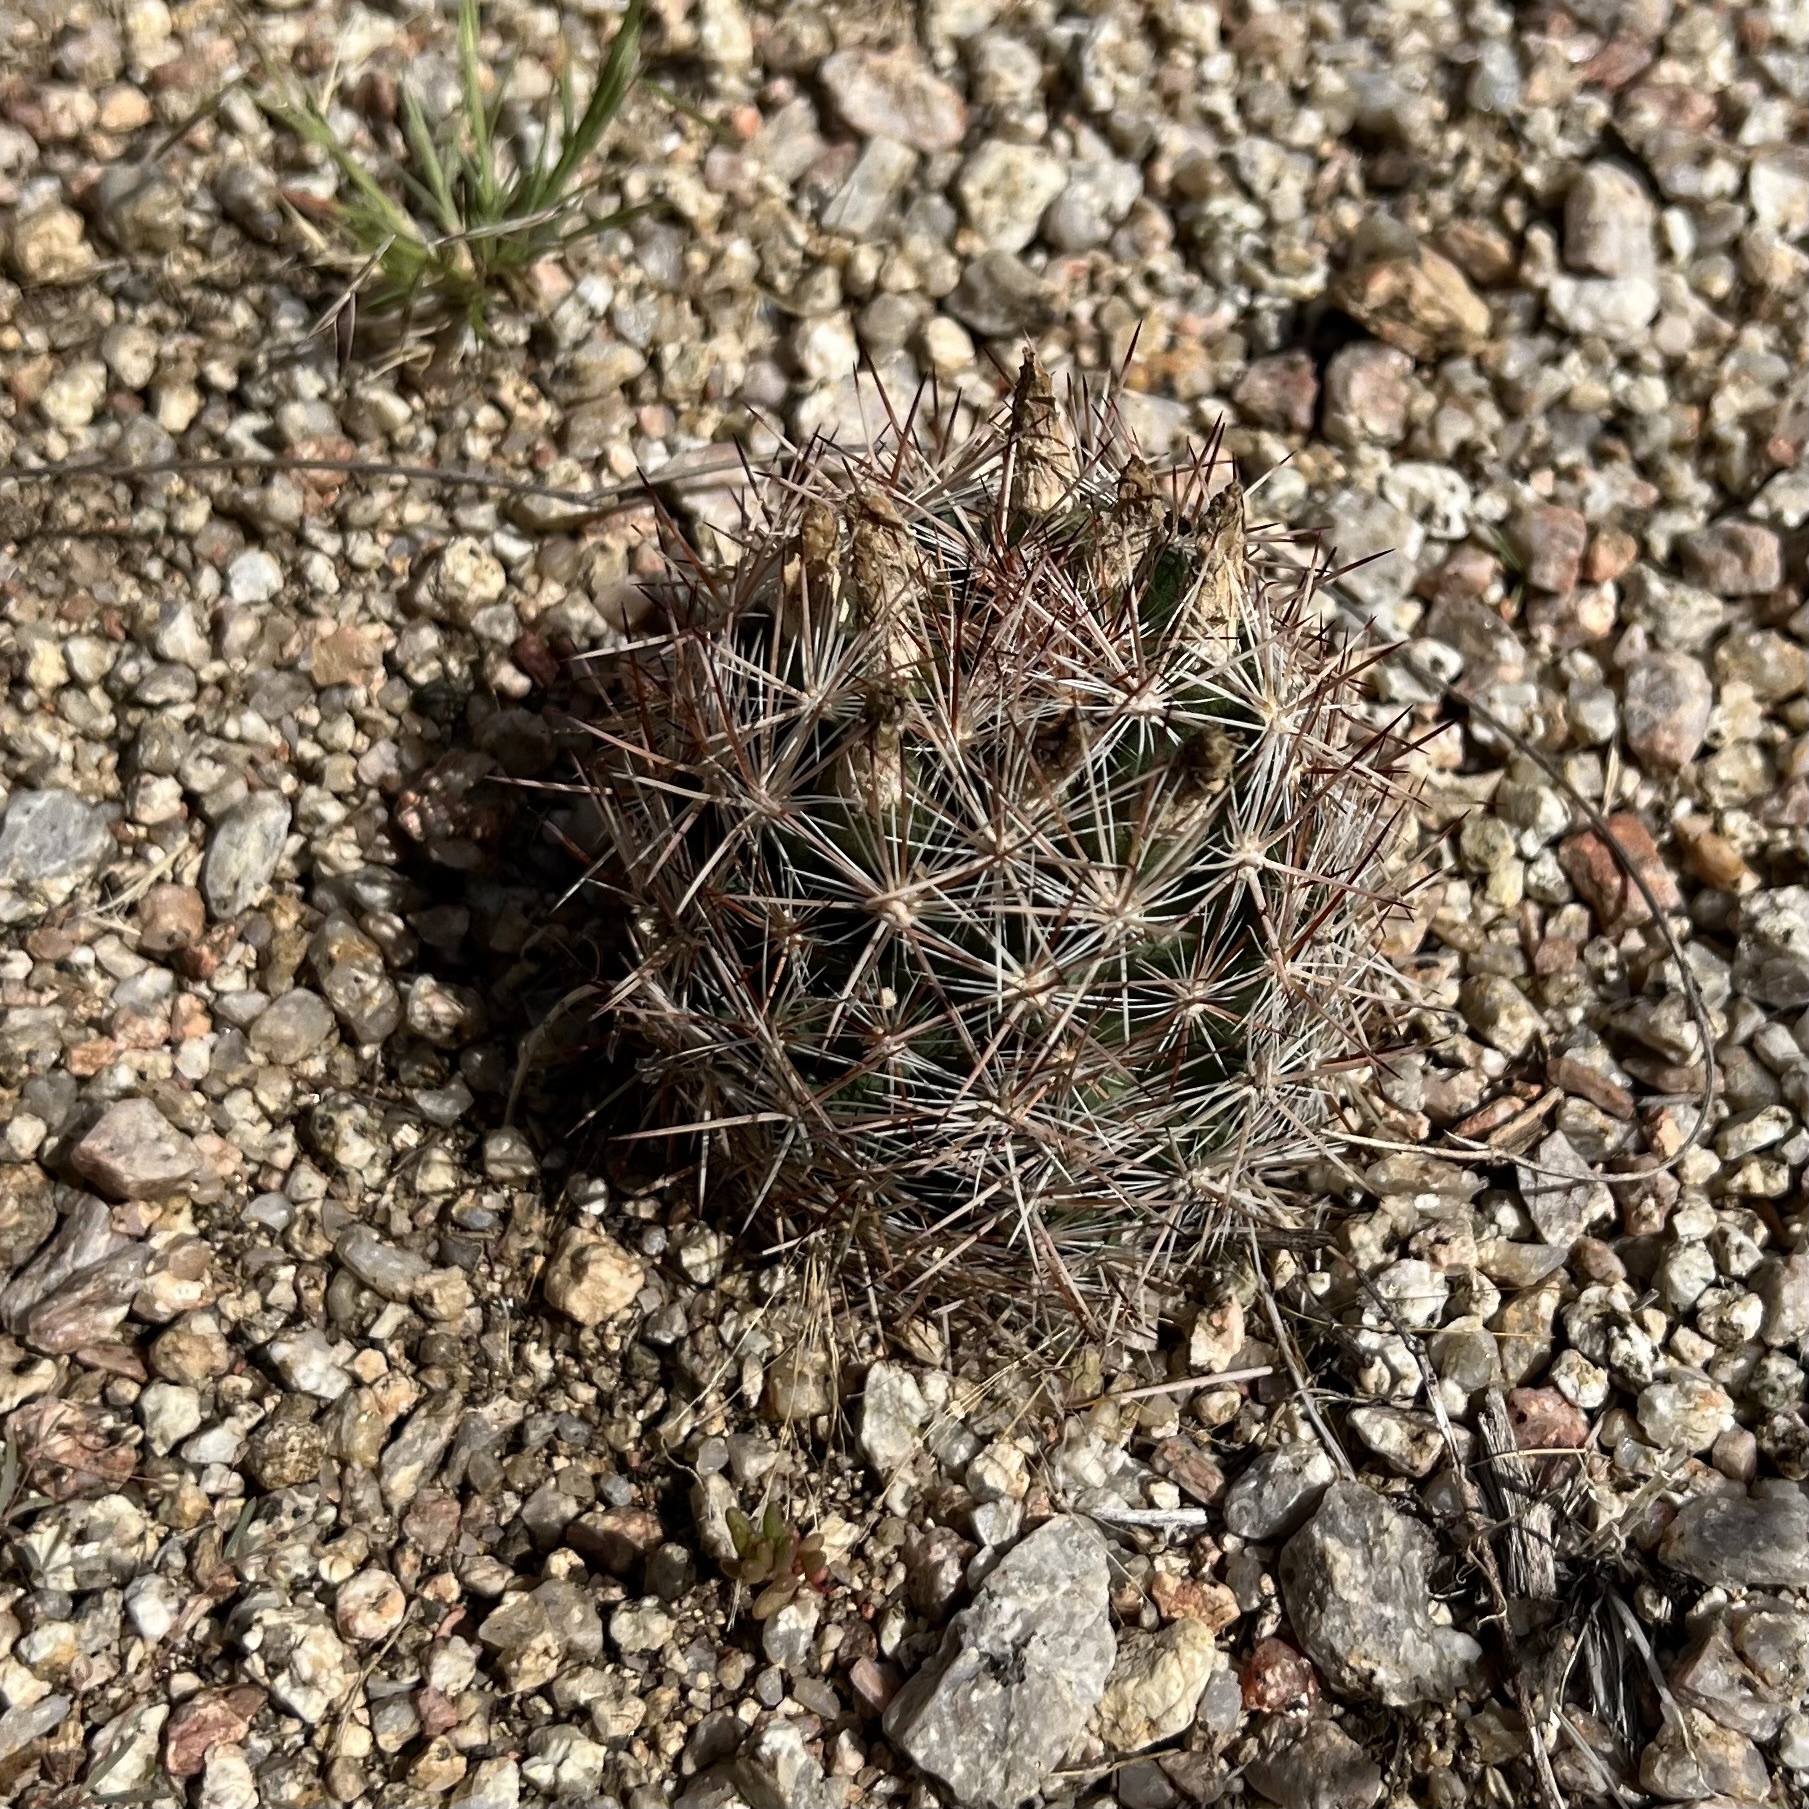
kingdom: Plantae
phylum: Tracheophyta
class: Magnoliopsida
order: Caryophyllales
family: Cactaceae
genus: Pelecyphora
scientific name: Pelecyphora vivipara
